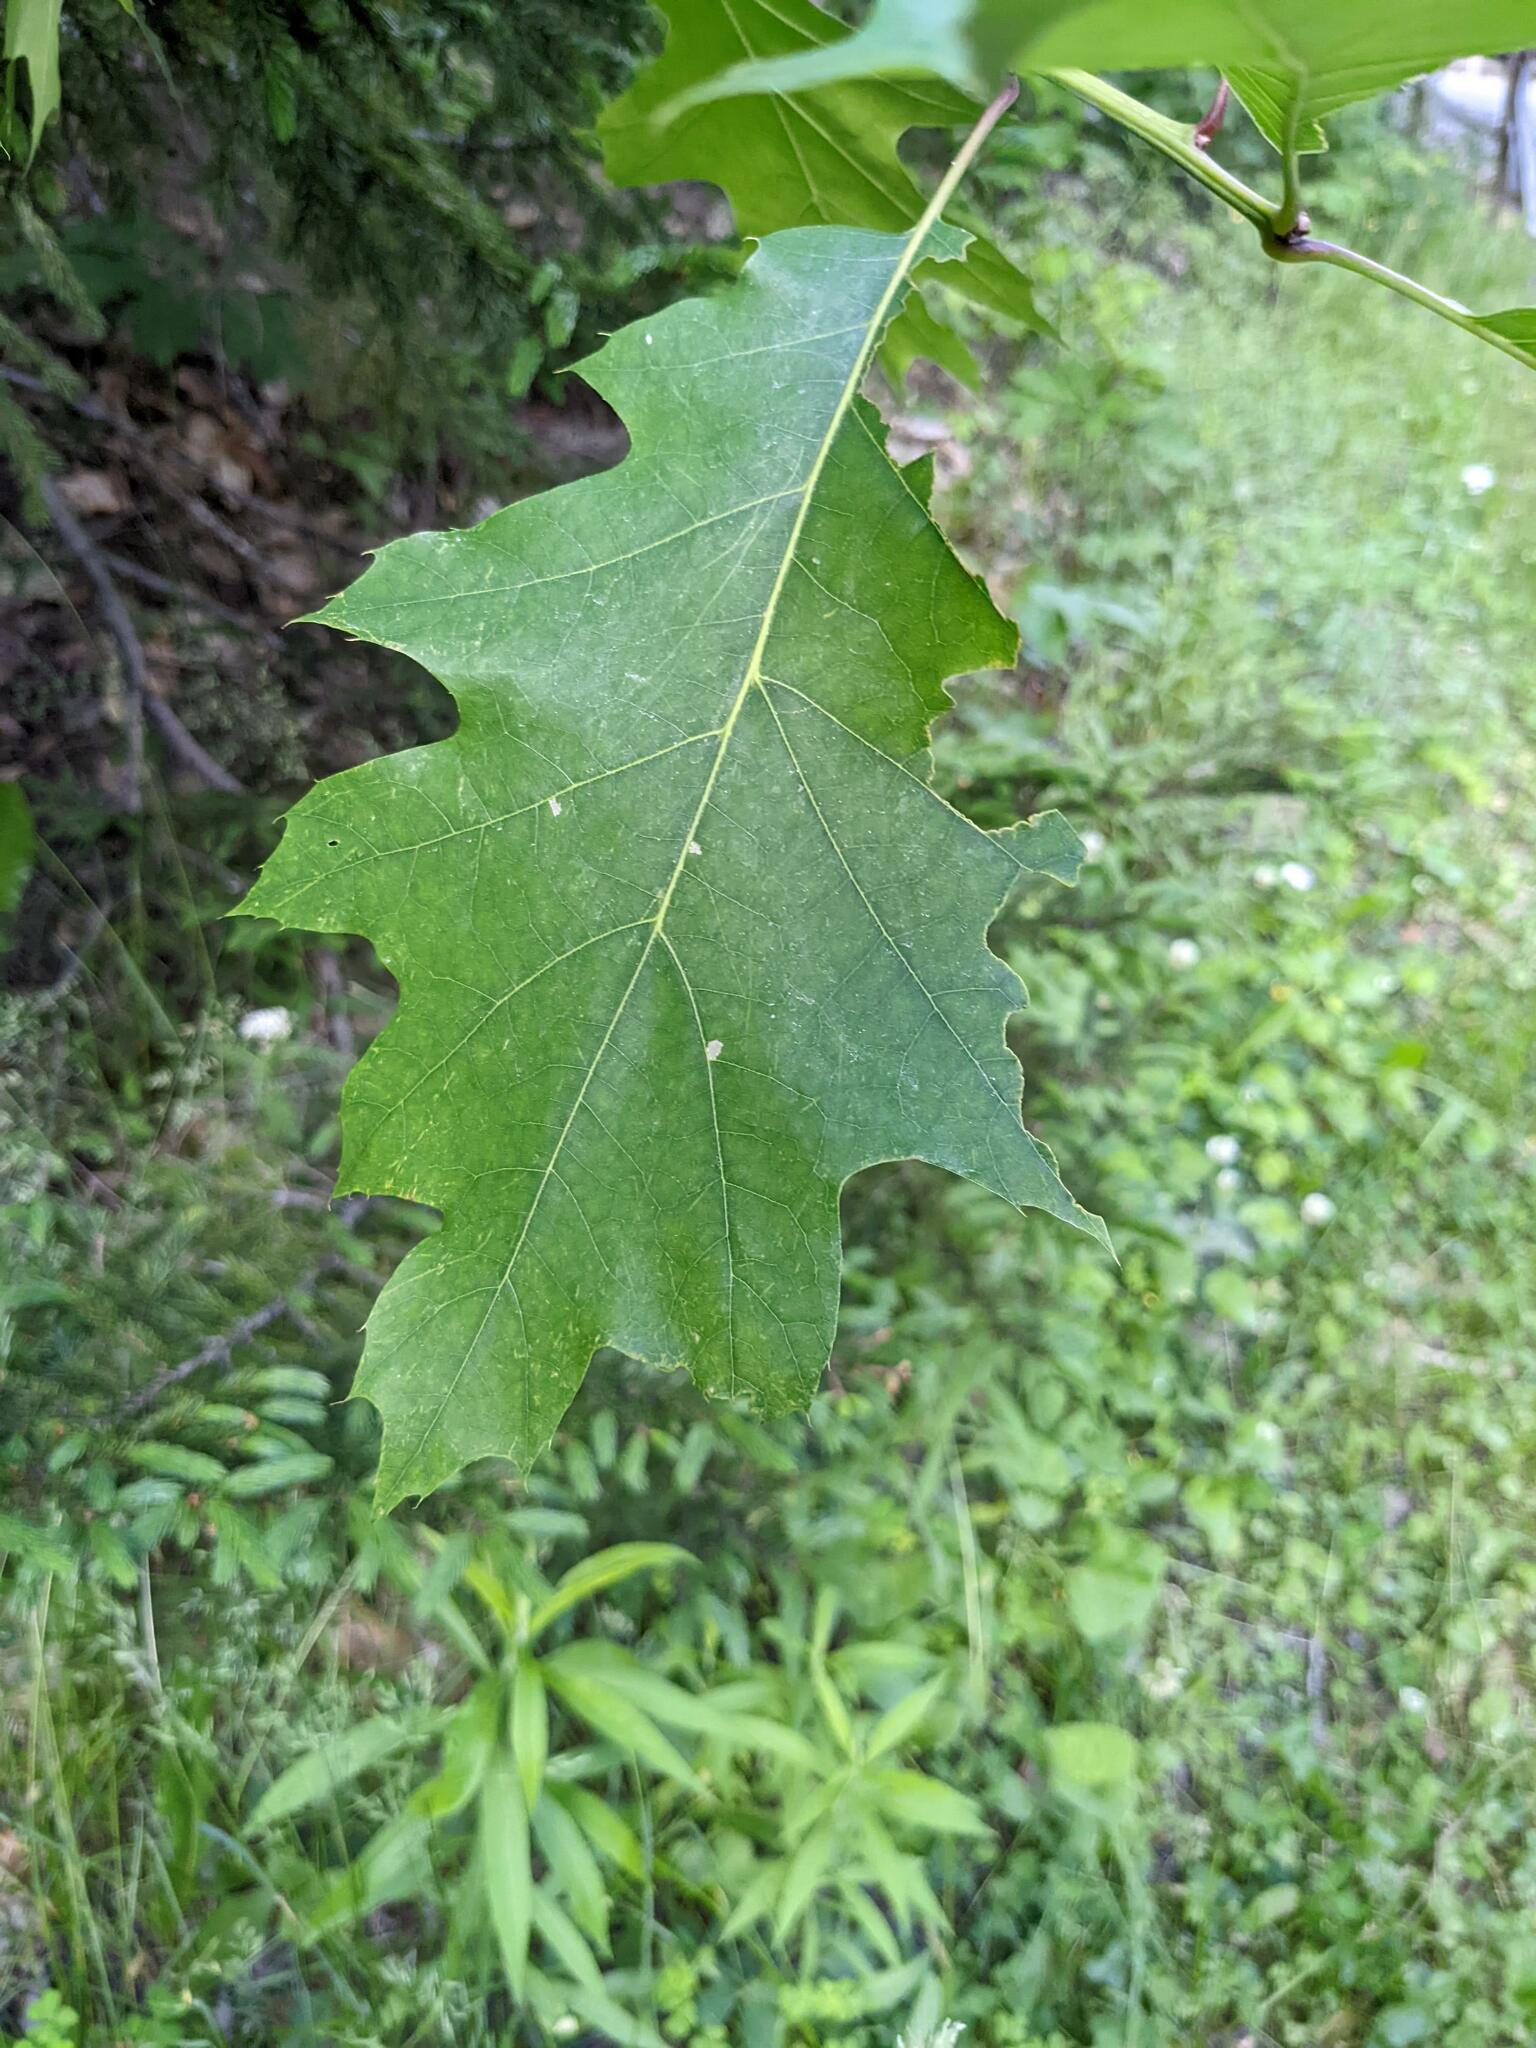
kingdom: Plantae
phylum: Tracheophyta
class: Magnoliopsida
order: Fagales
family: Fagaceae
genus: Quercus
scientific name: Quercus rubra
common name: Red oak
